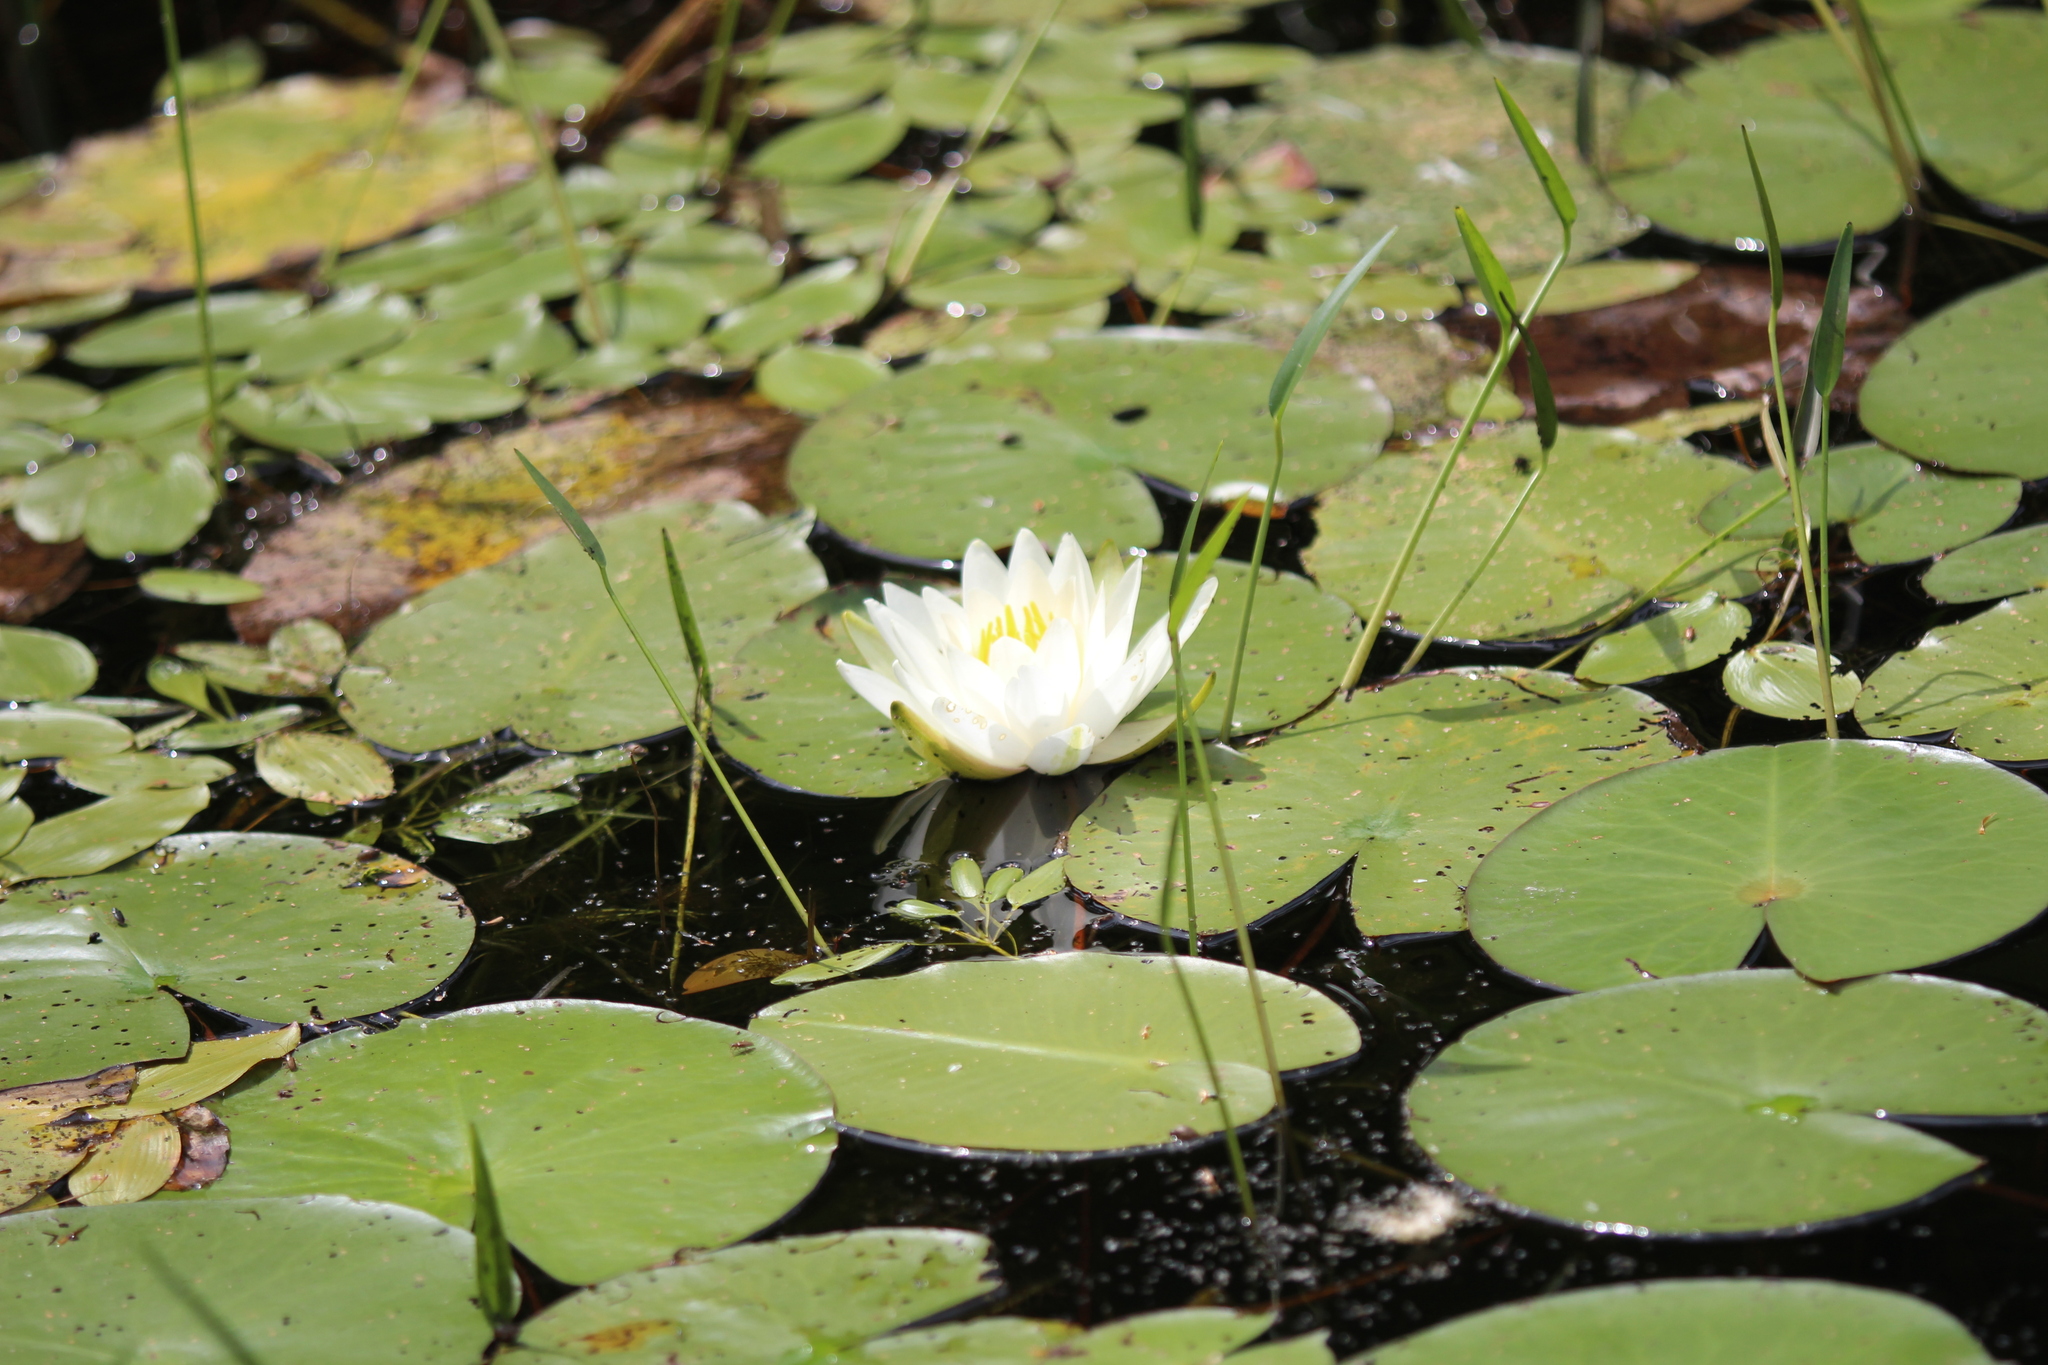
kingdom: Plantae
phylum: Tracheophyta
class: Magnoliopsida
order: Nymphaeales
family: Nymphaeaceae
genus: Nymphaea
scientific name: Nymphaea odorata
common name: Fragrant water-lily
